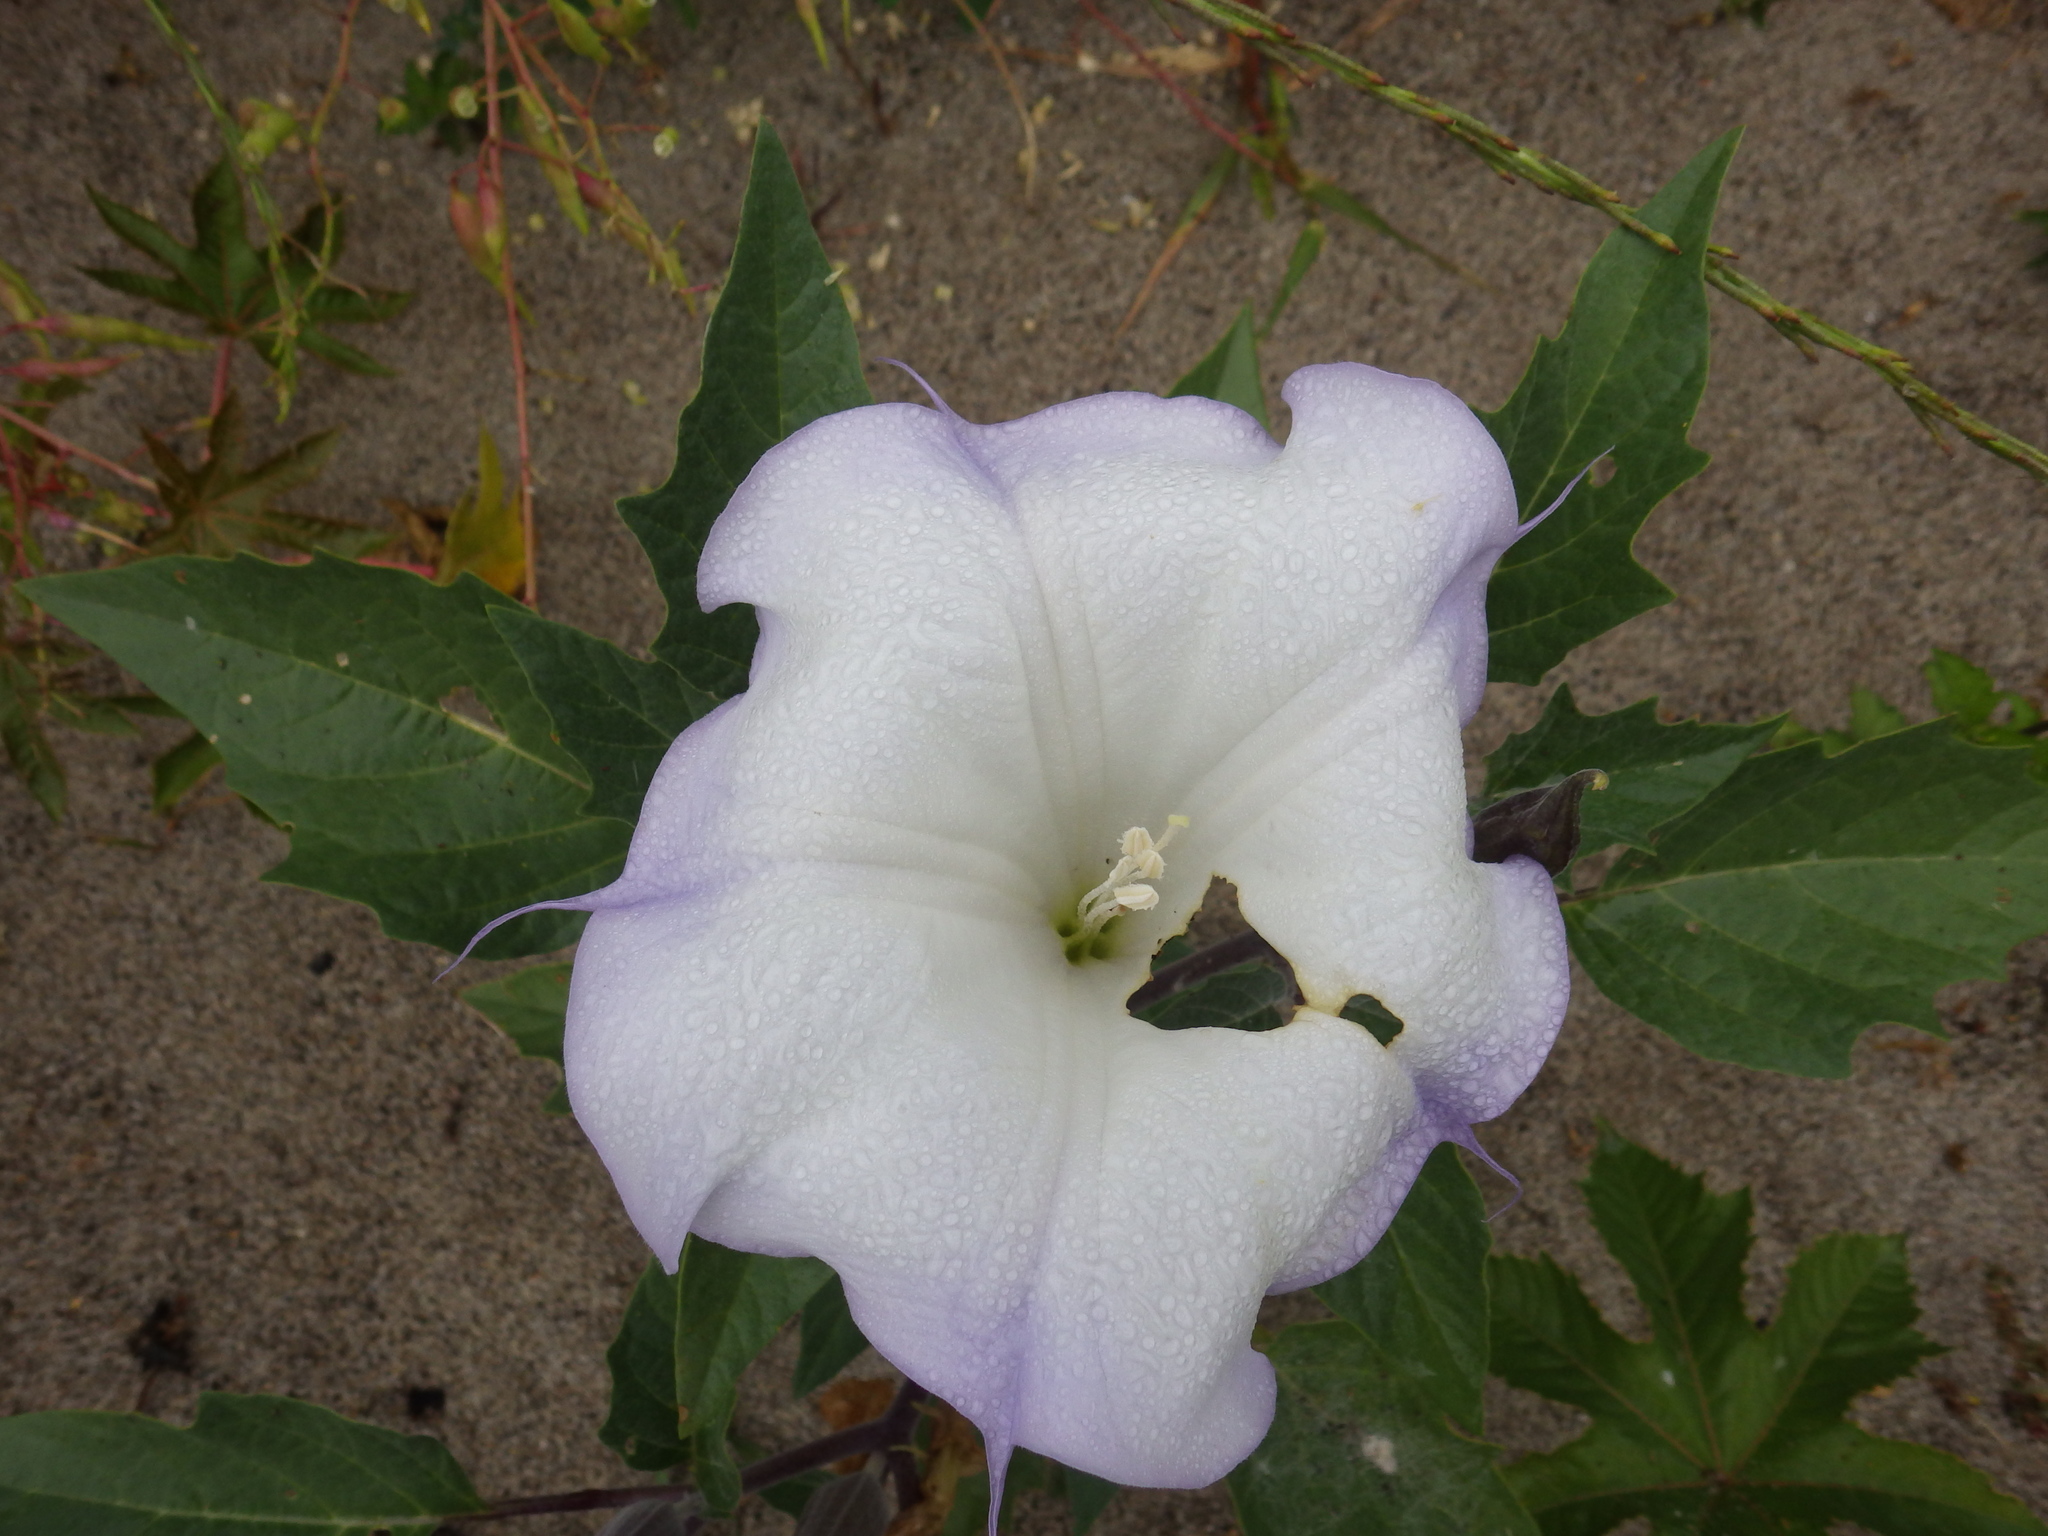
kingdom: Plantae
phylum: Tracheophyta
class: Magnoliopsida
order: Solanales
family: Solanaceae
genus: Datura
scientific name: Datura wrightii
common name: Sacred thorn-apple
